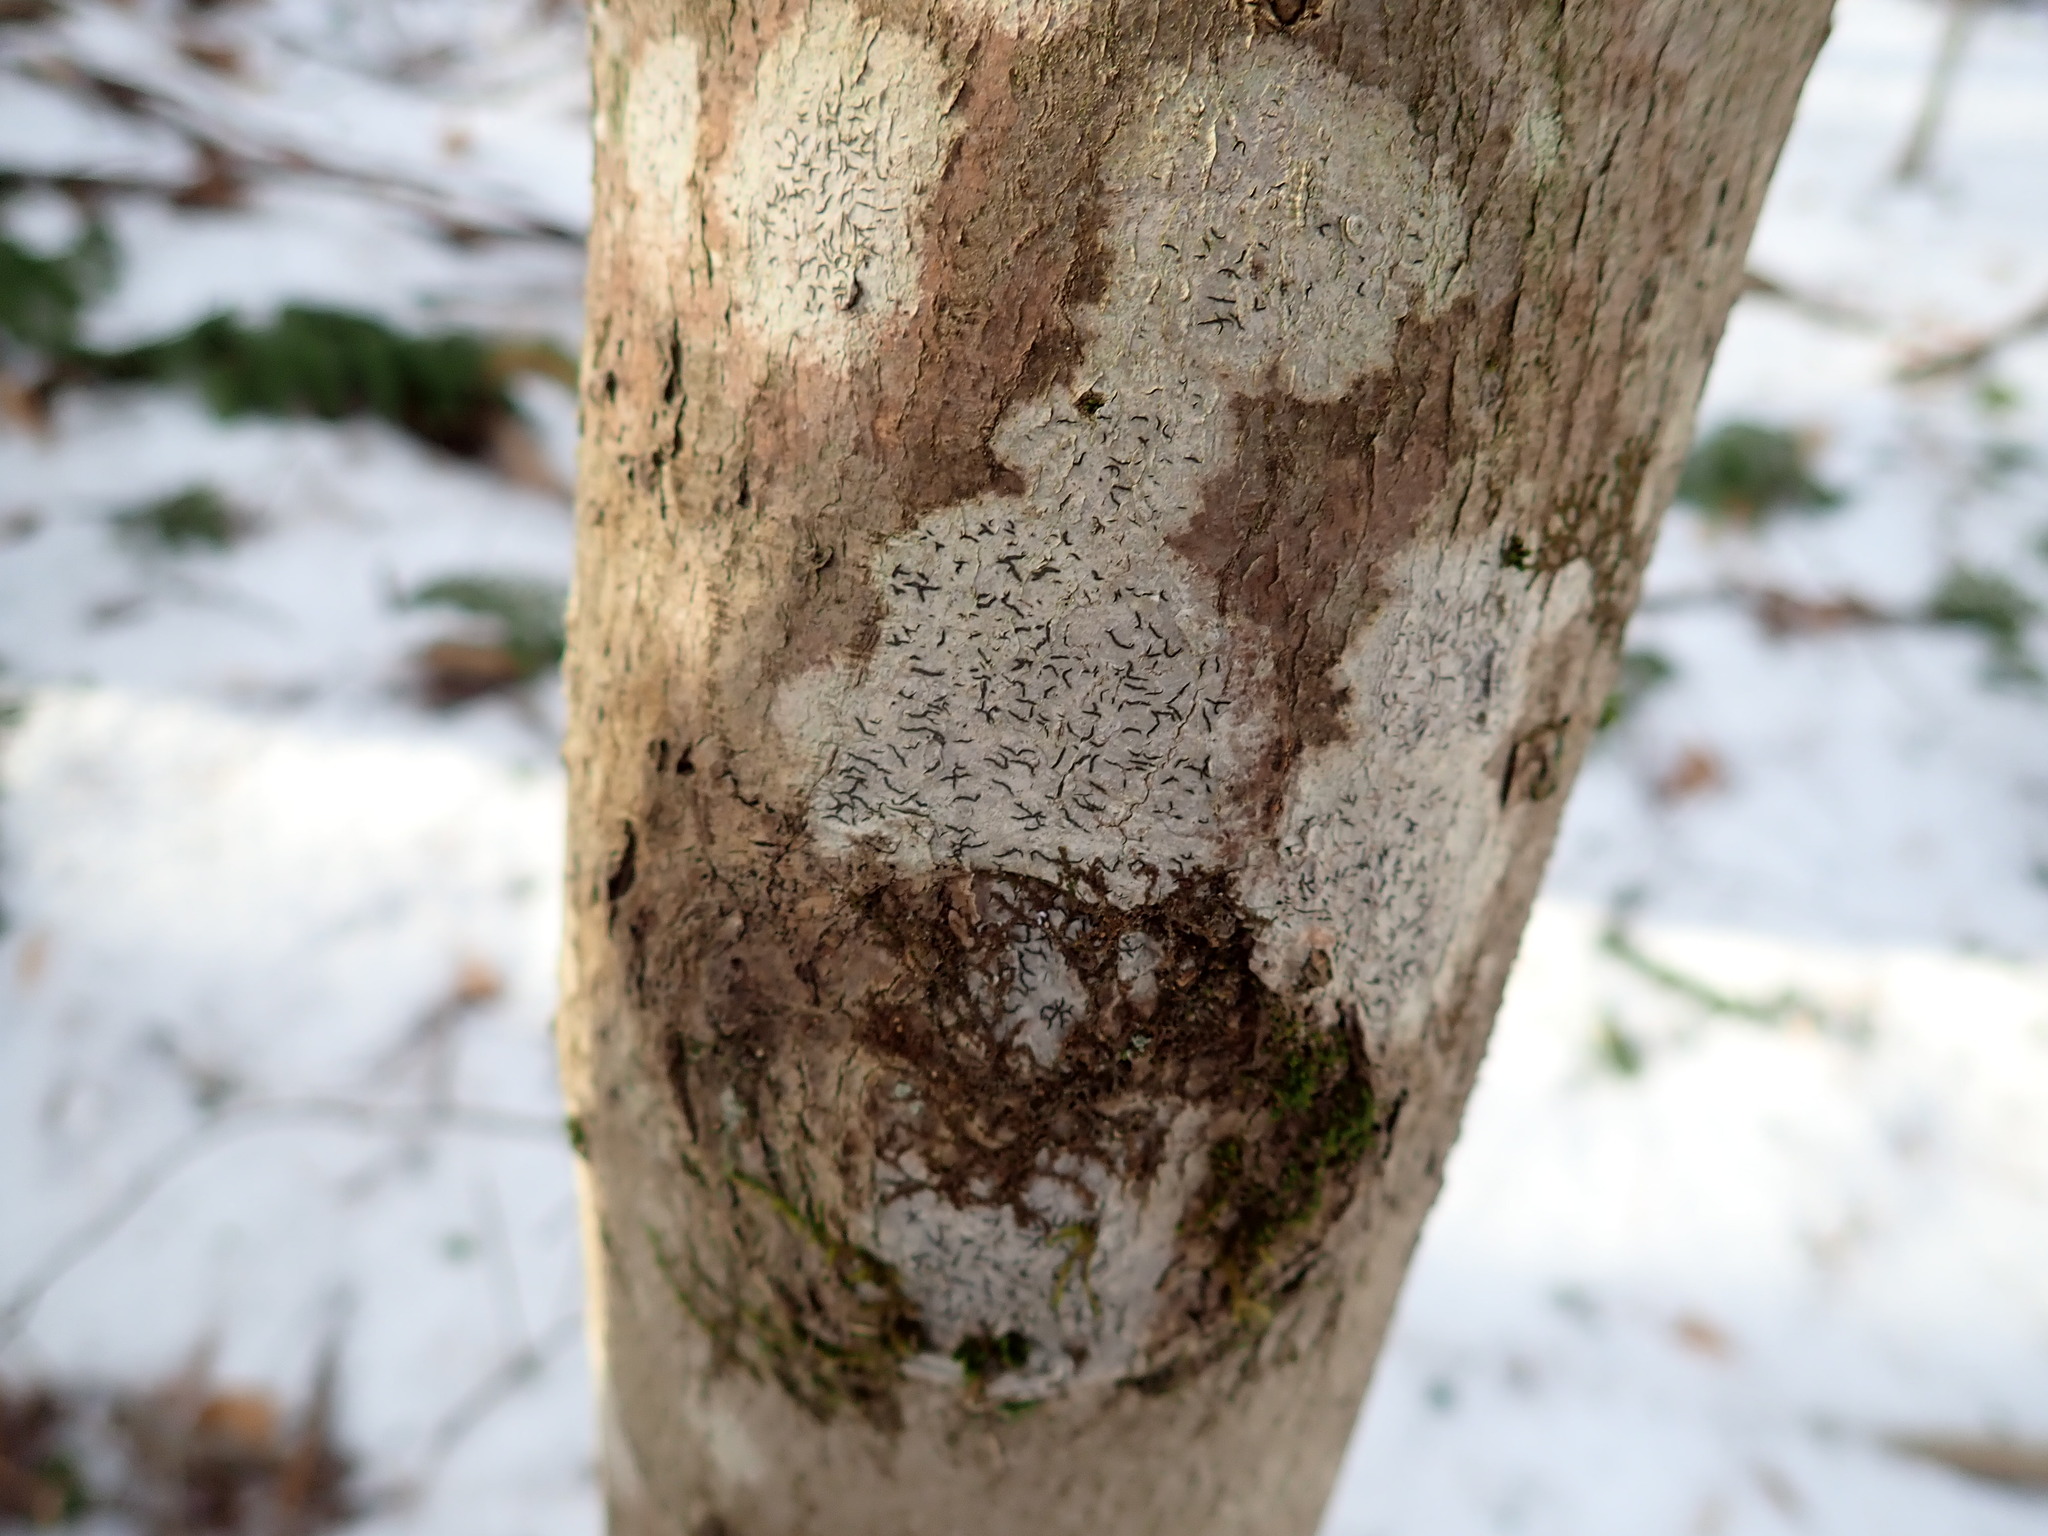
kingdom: Fungi
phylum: Ascomycota
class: Lecanoromycetes
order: Ostropales
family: Graphidaceae
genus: Graphis
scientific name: Graphis scripta
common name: Script lichen
